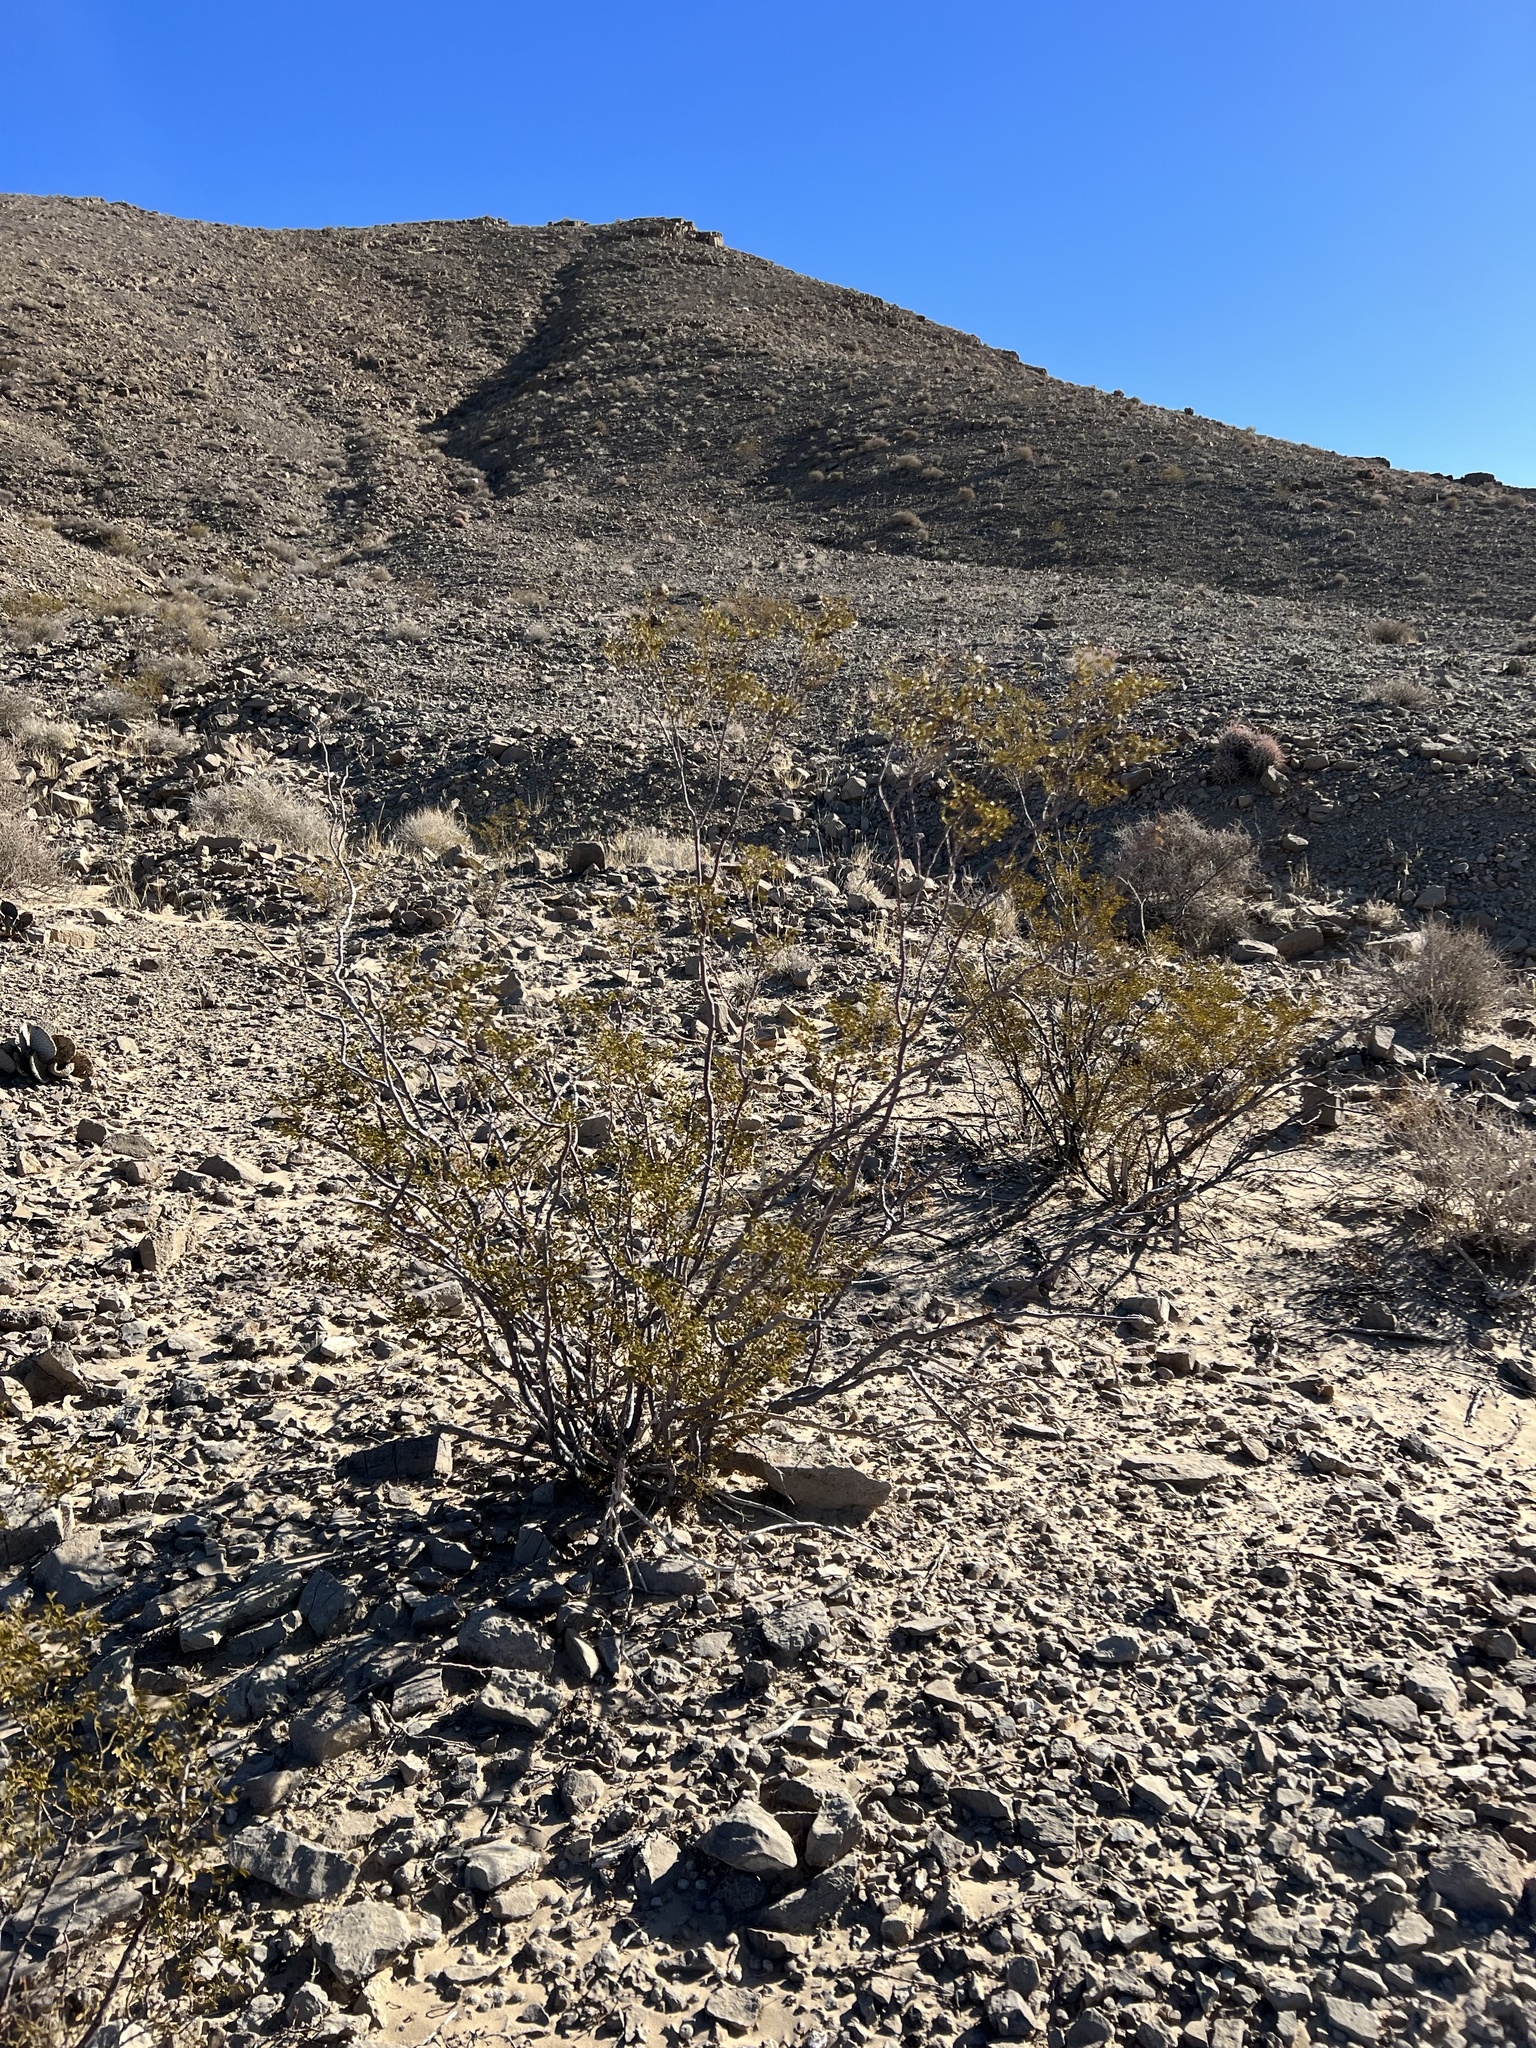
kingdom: Plantae
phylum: Tracheophyta
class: Magnoliopsida
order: Zygophyllales
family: Zygophyllaceae
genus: Larrea
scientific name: Larrea tridentata
